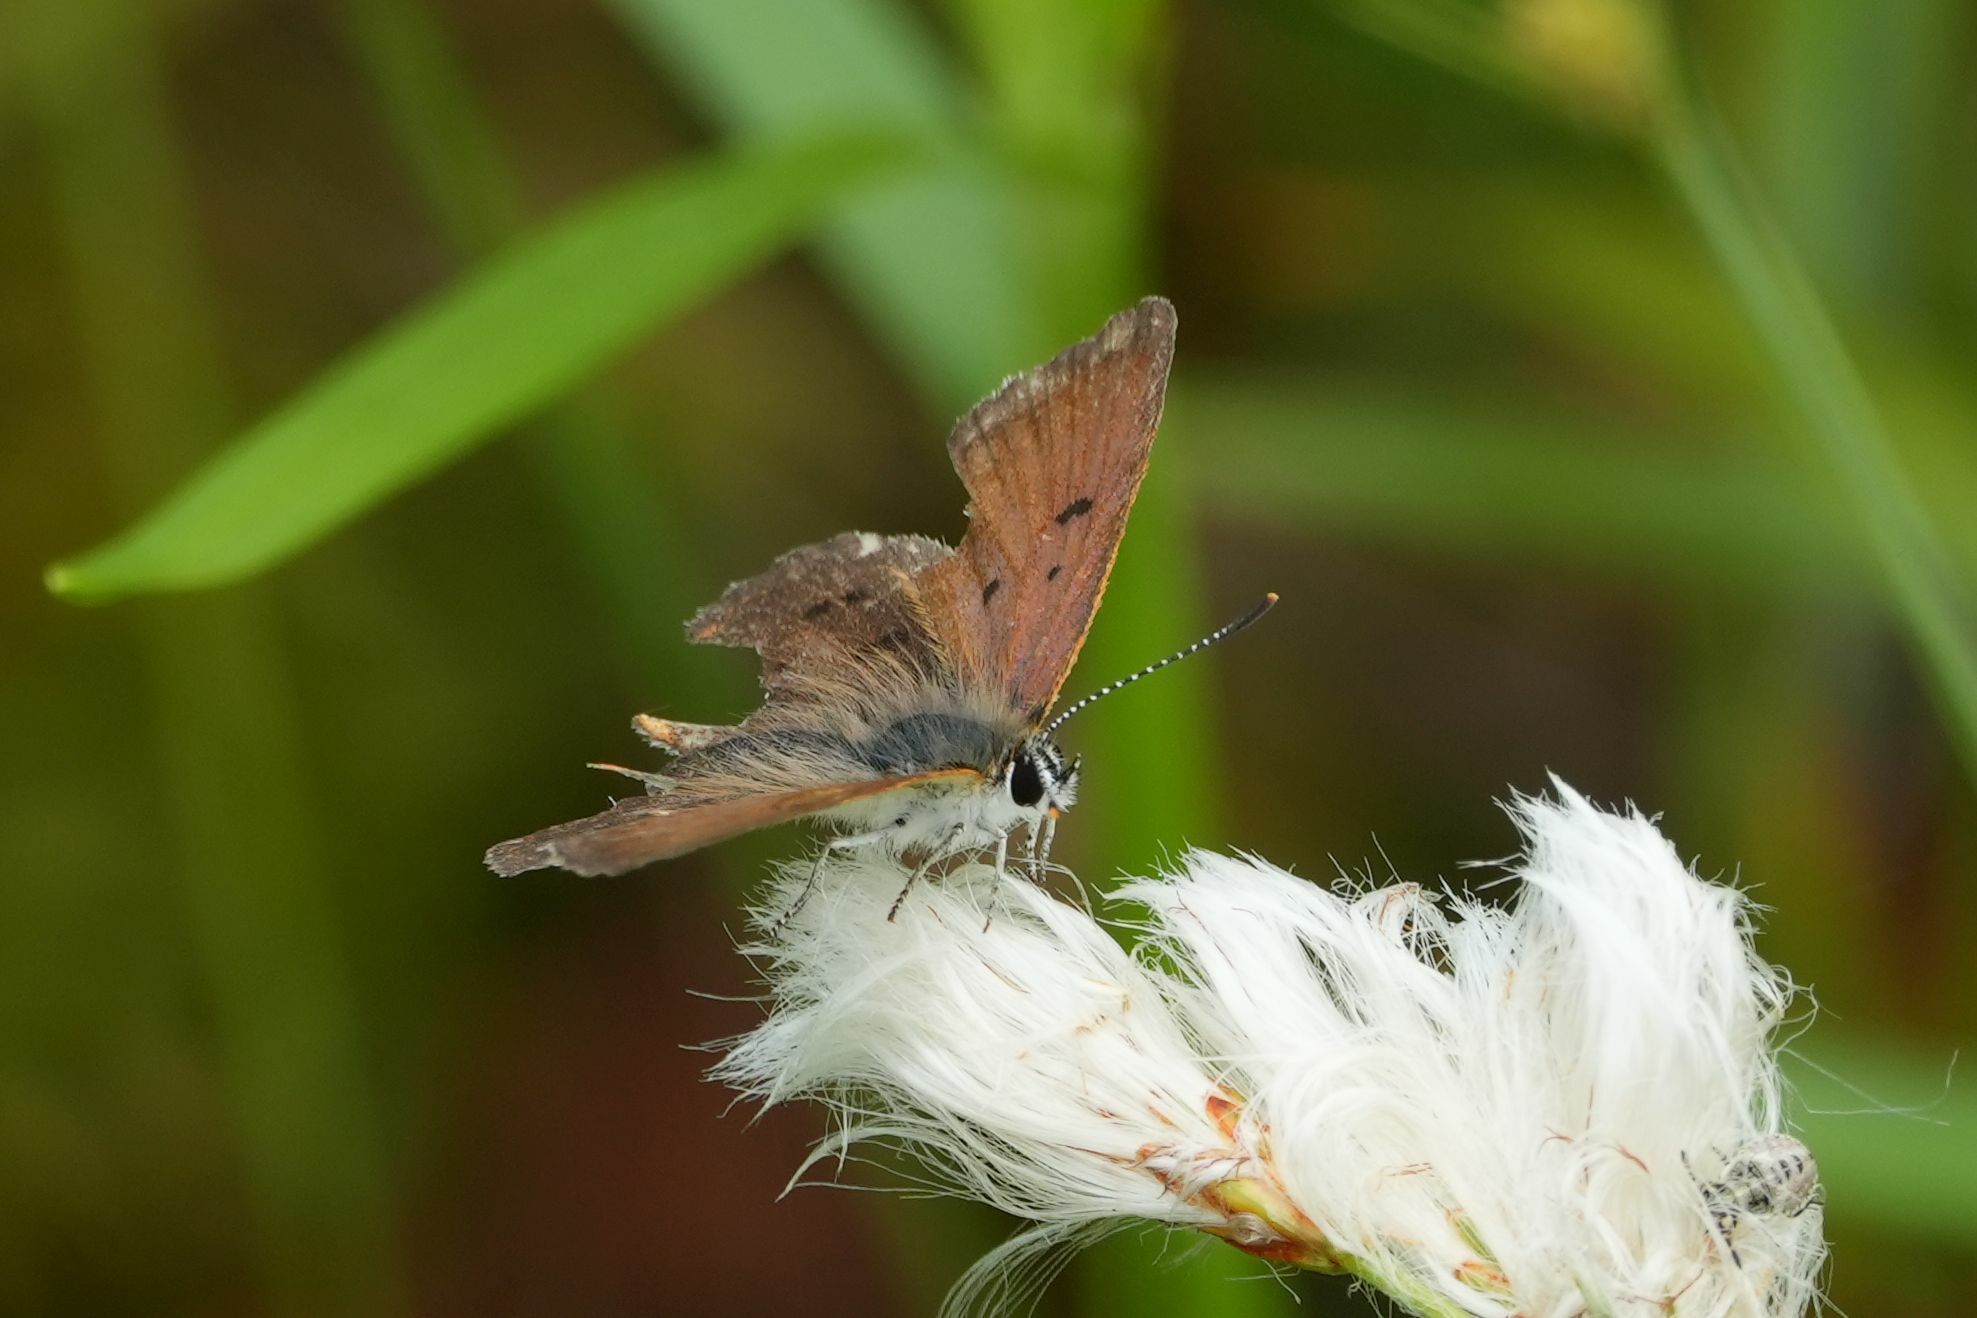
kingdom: Animalia
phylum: Arthropoda
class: Insecta
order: Lepidoptera
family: Lycaenidae
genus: Tharsalea
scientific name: Tharsalea epixanthe
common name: Bog copper
